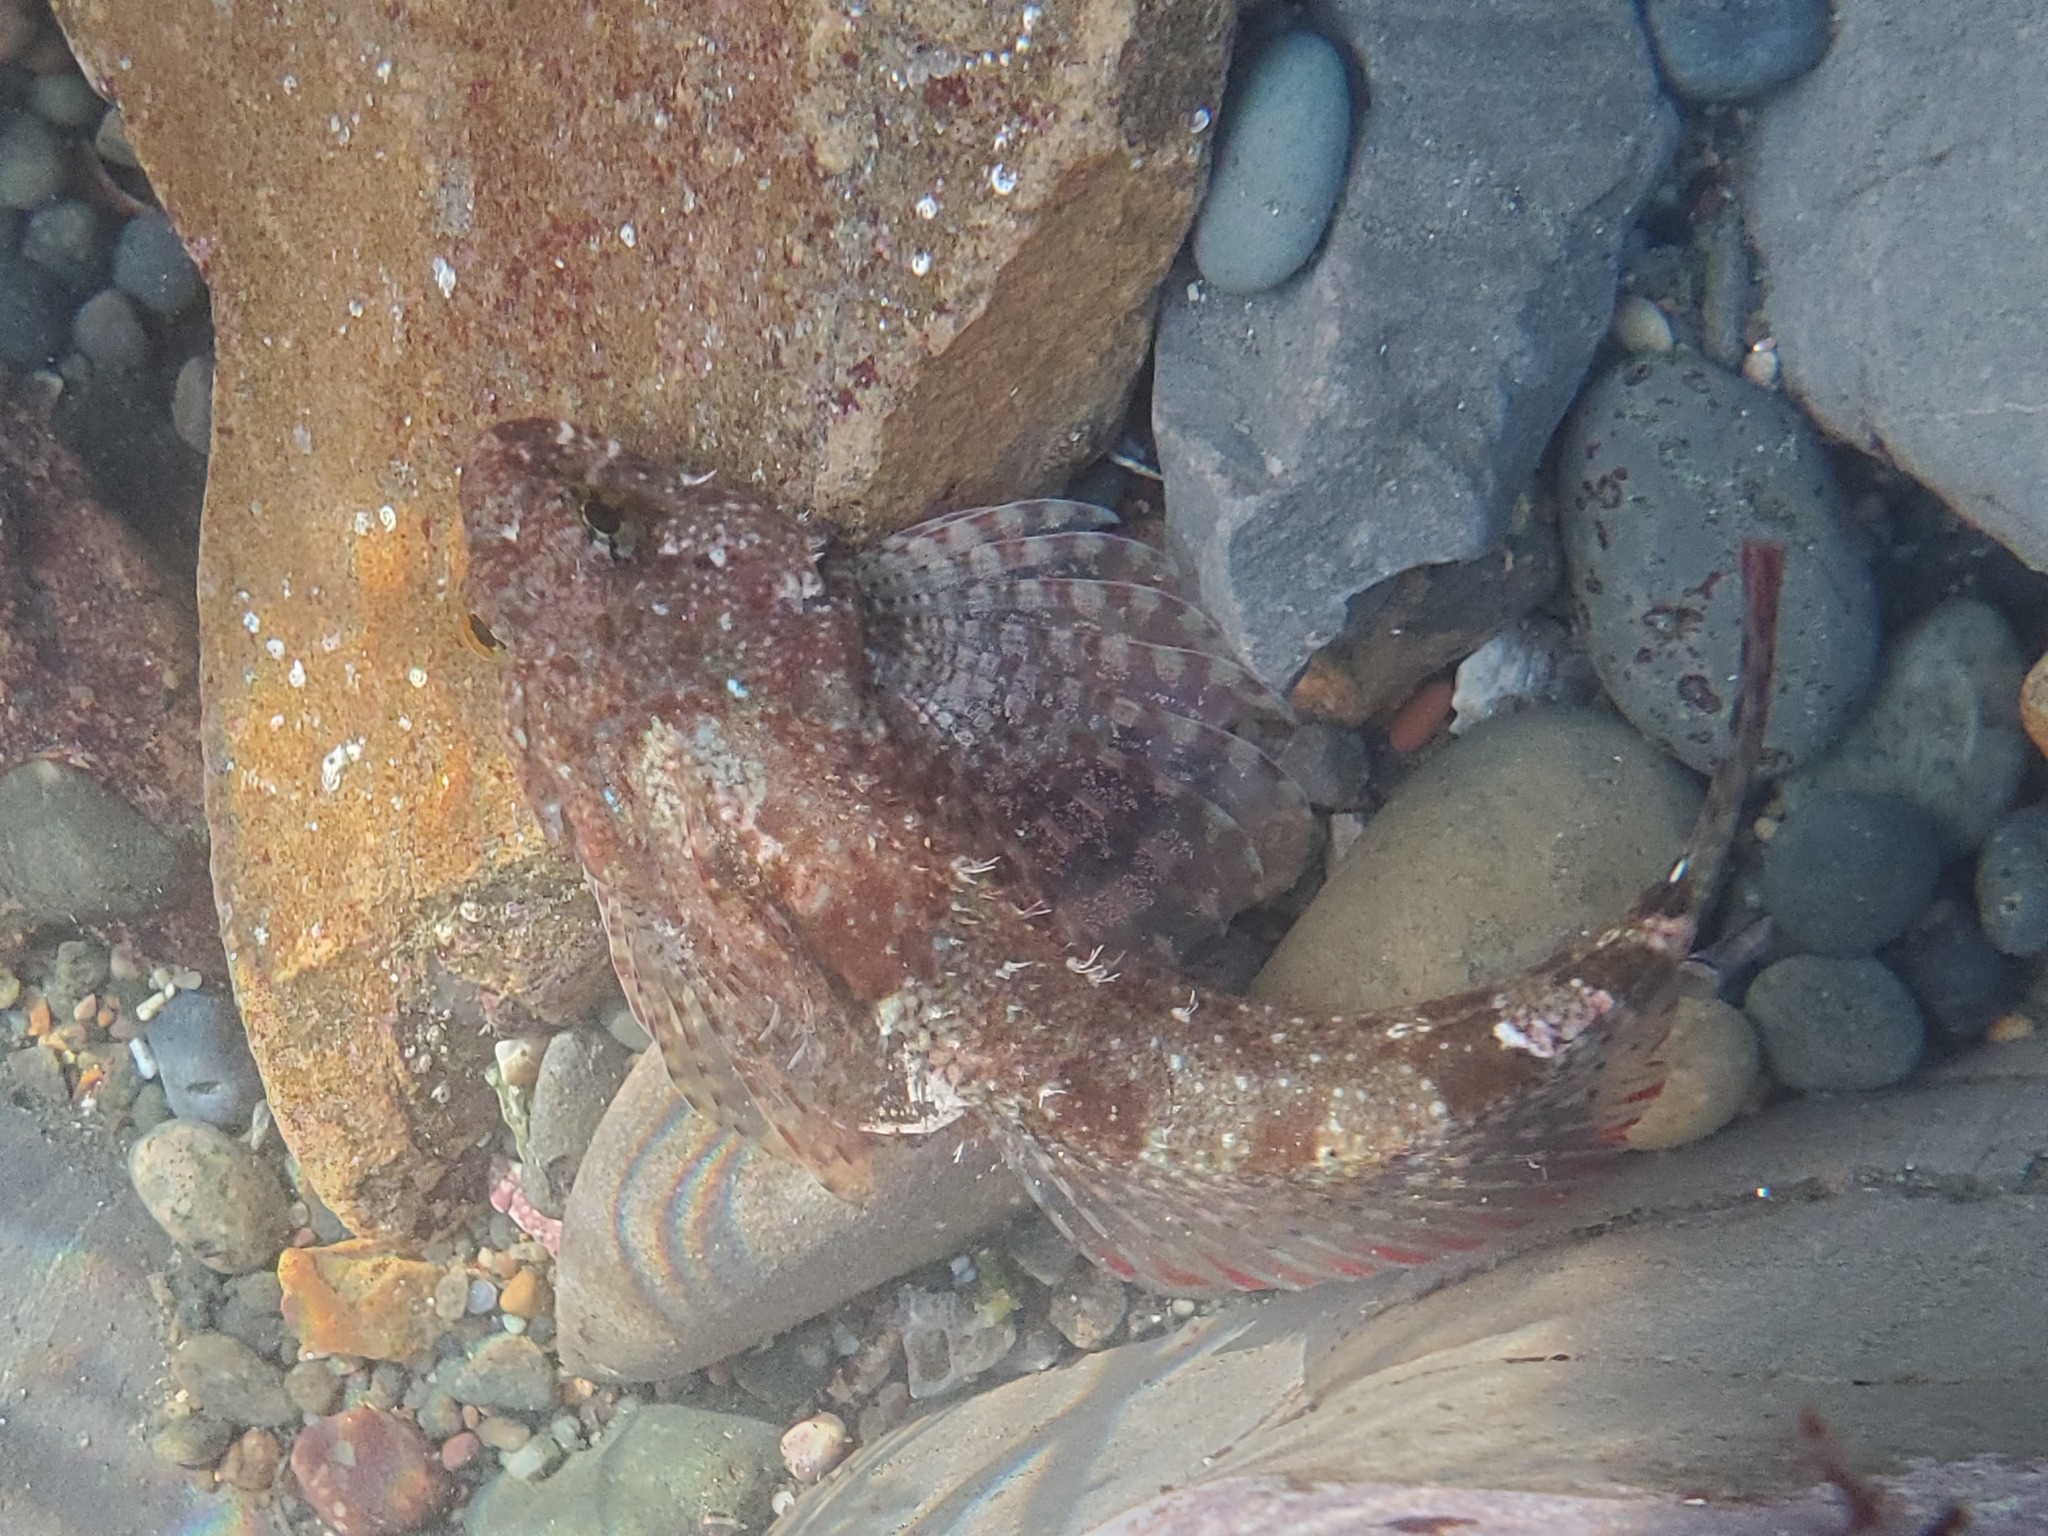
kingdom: Animalia
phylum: Chordata
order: Scorpaeniformes
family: Cottidae
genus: Clinocottus
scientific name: Clinocottus analis
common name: Woolly sculpin
